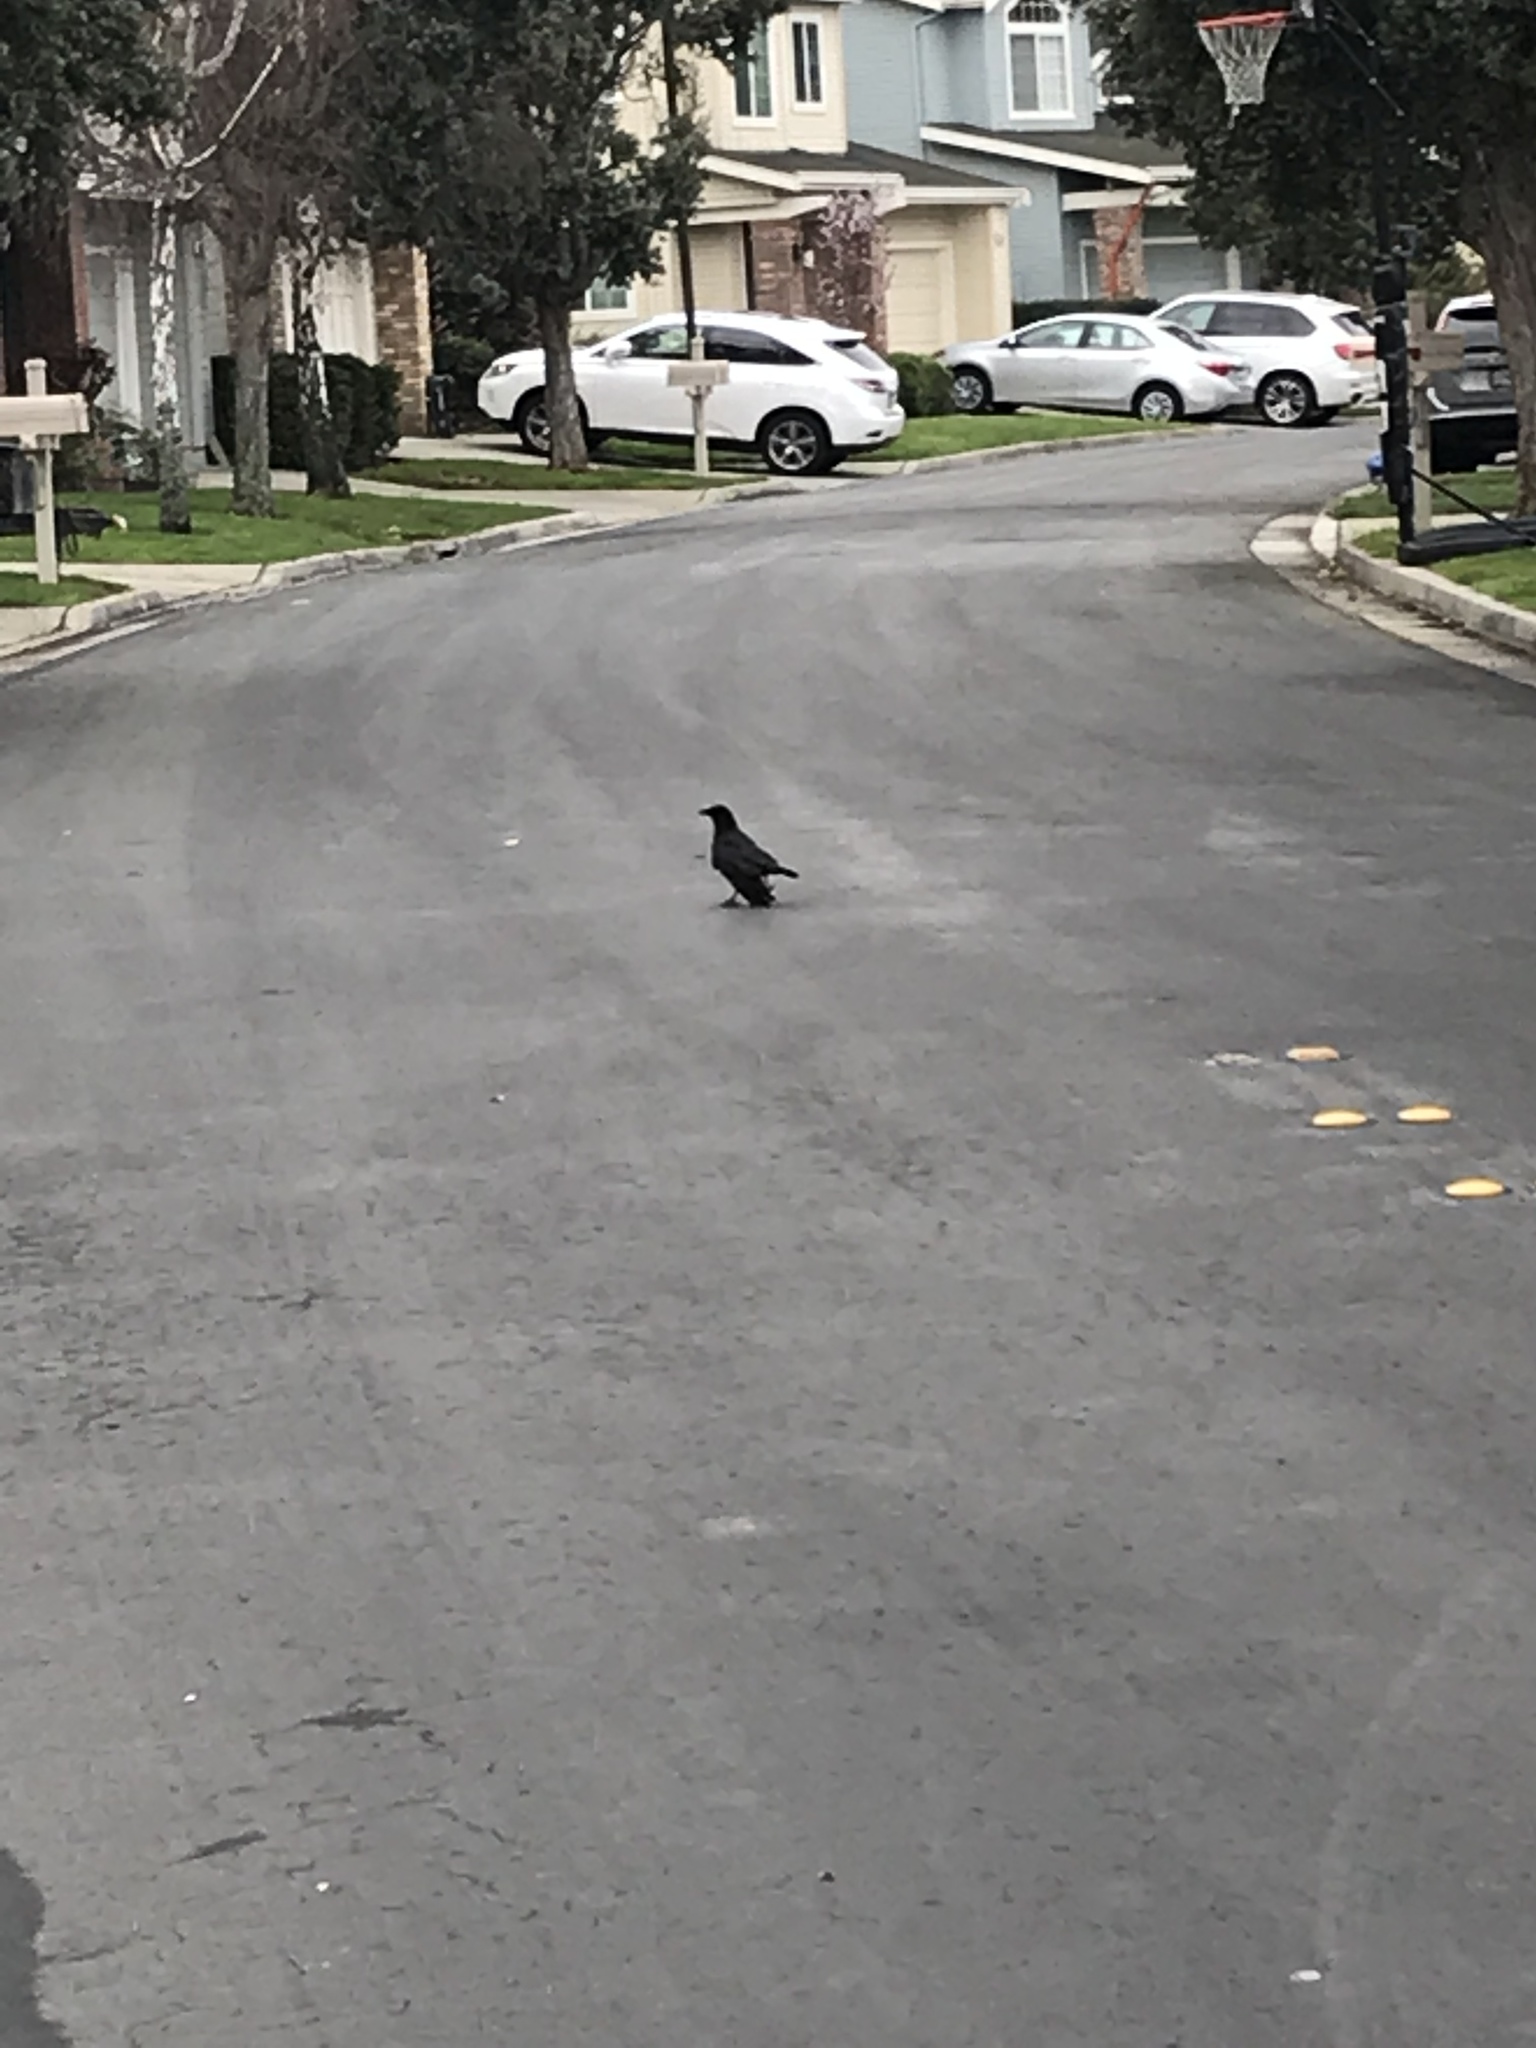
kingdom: Animalia
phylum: Chordata
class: Aves
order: Passeriformes
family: Corvidae
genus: Corvus
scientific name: Corvus brachyrhynchos
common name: American crow
